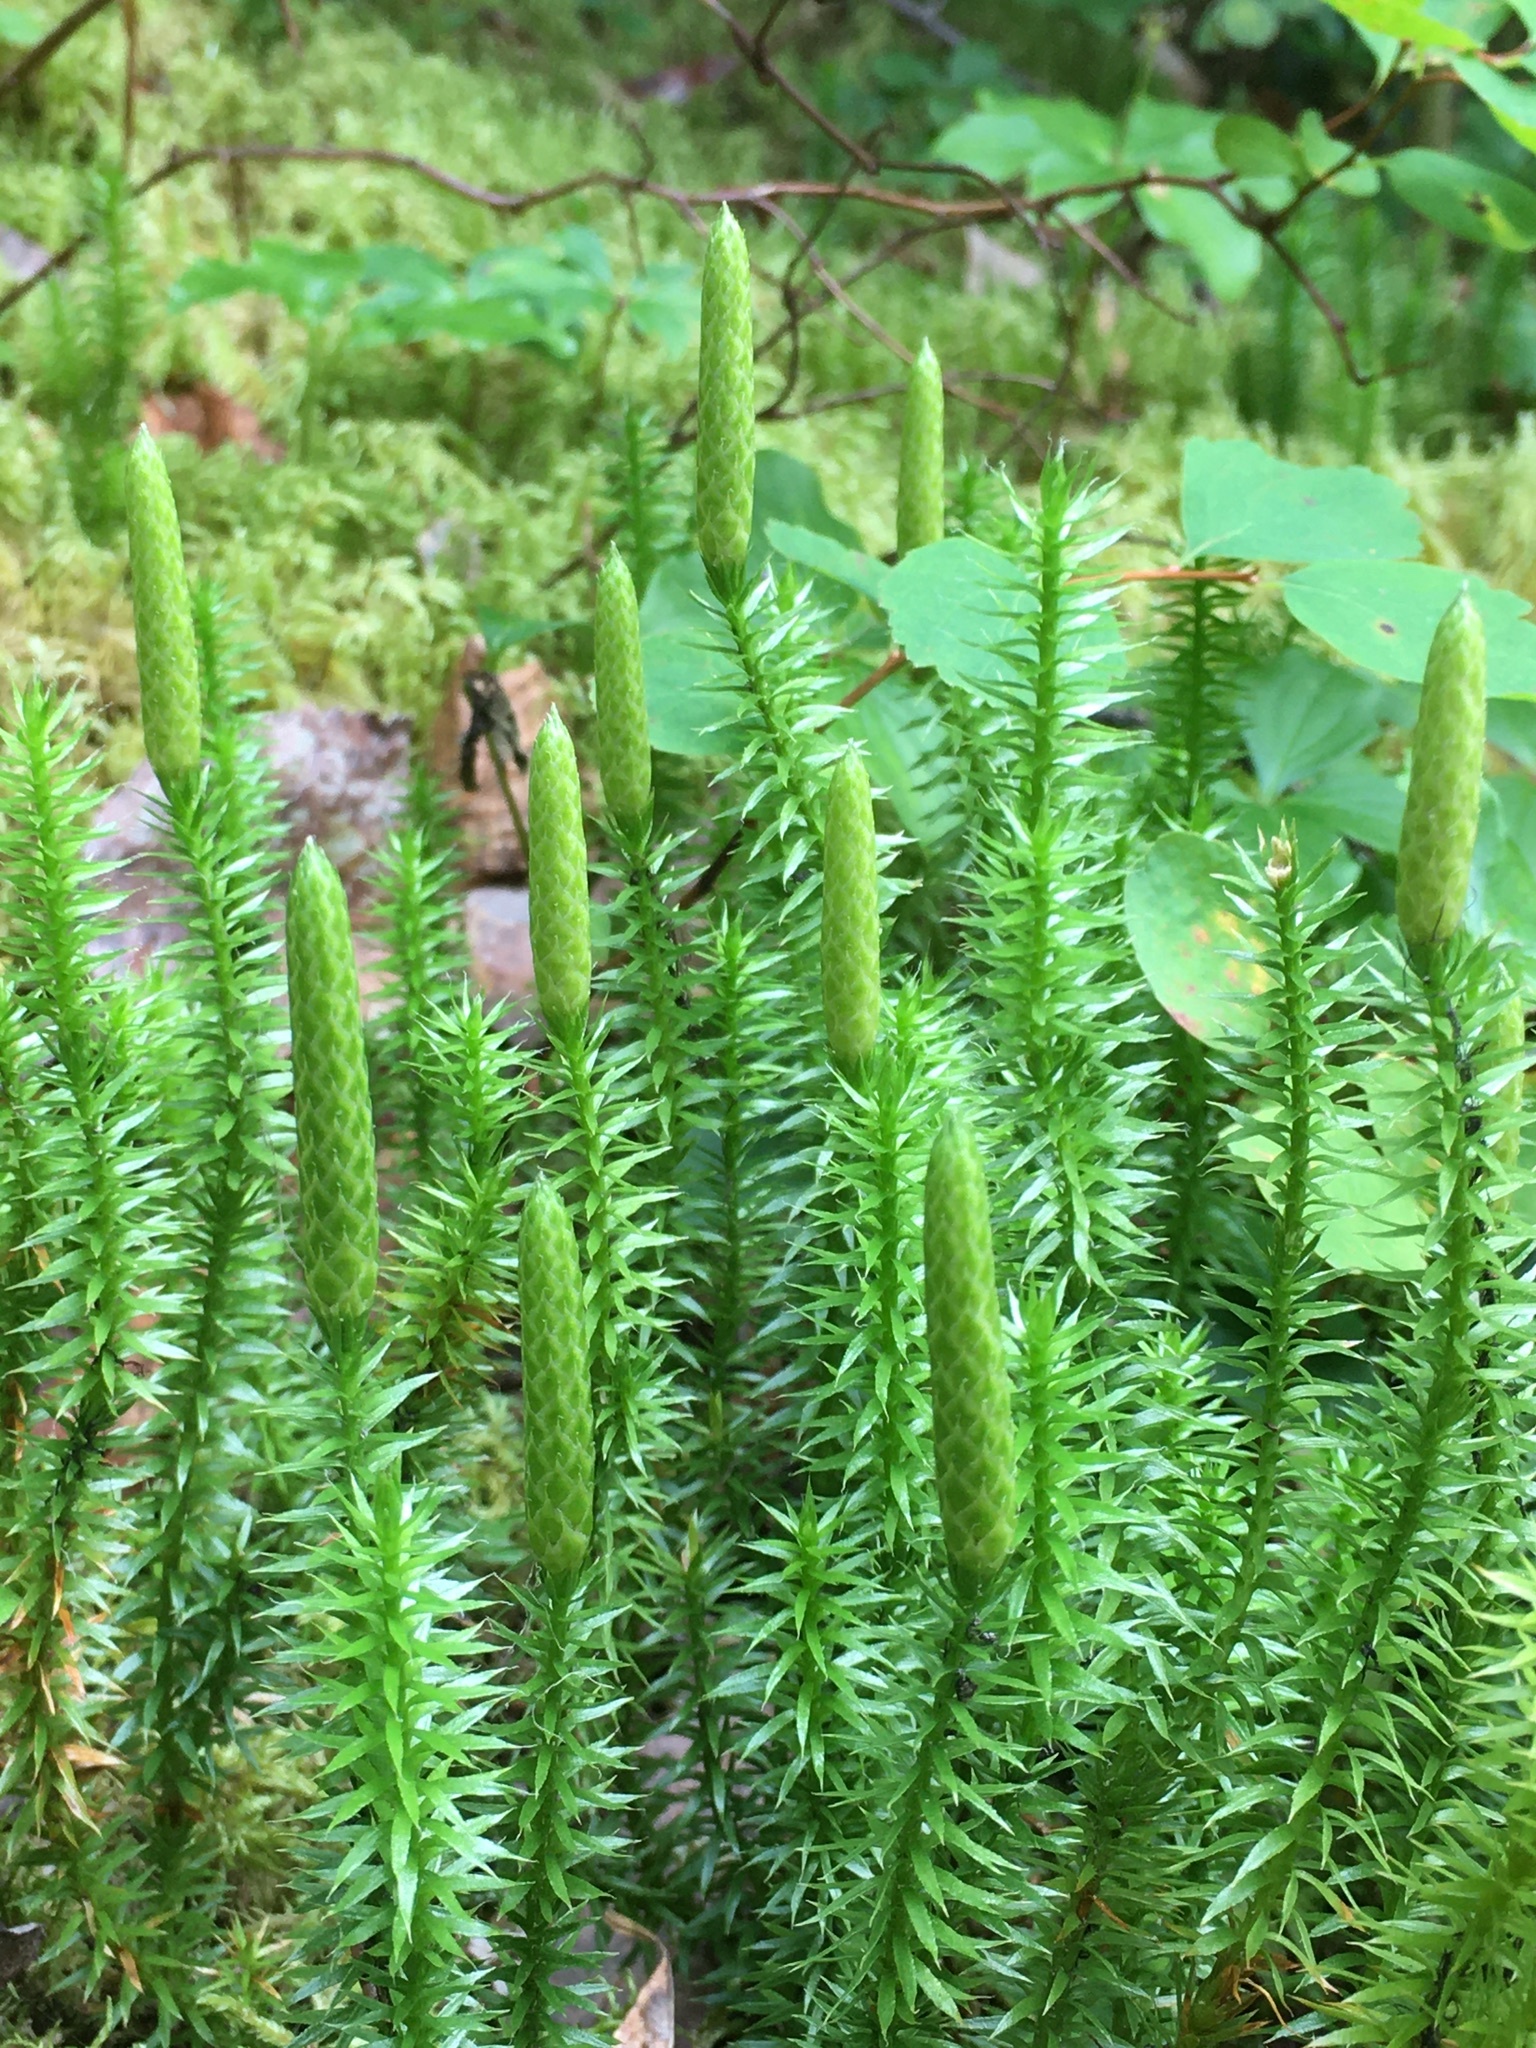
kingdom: Plantae
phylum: Tracheophyta
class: Lycopodiopsida
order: Lycopodiales
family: Lycopodiaceae
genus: Spinulum
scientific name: Spinulum annotinum
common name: Interrupted club-moss
